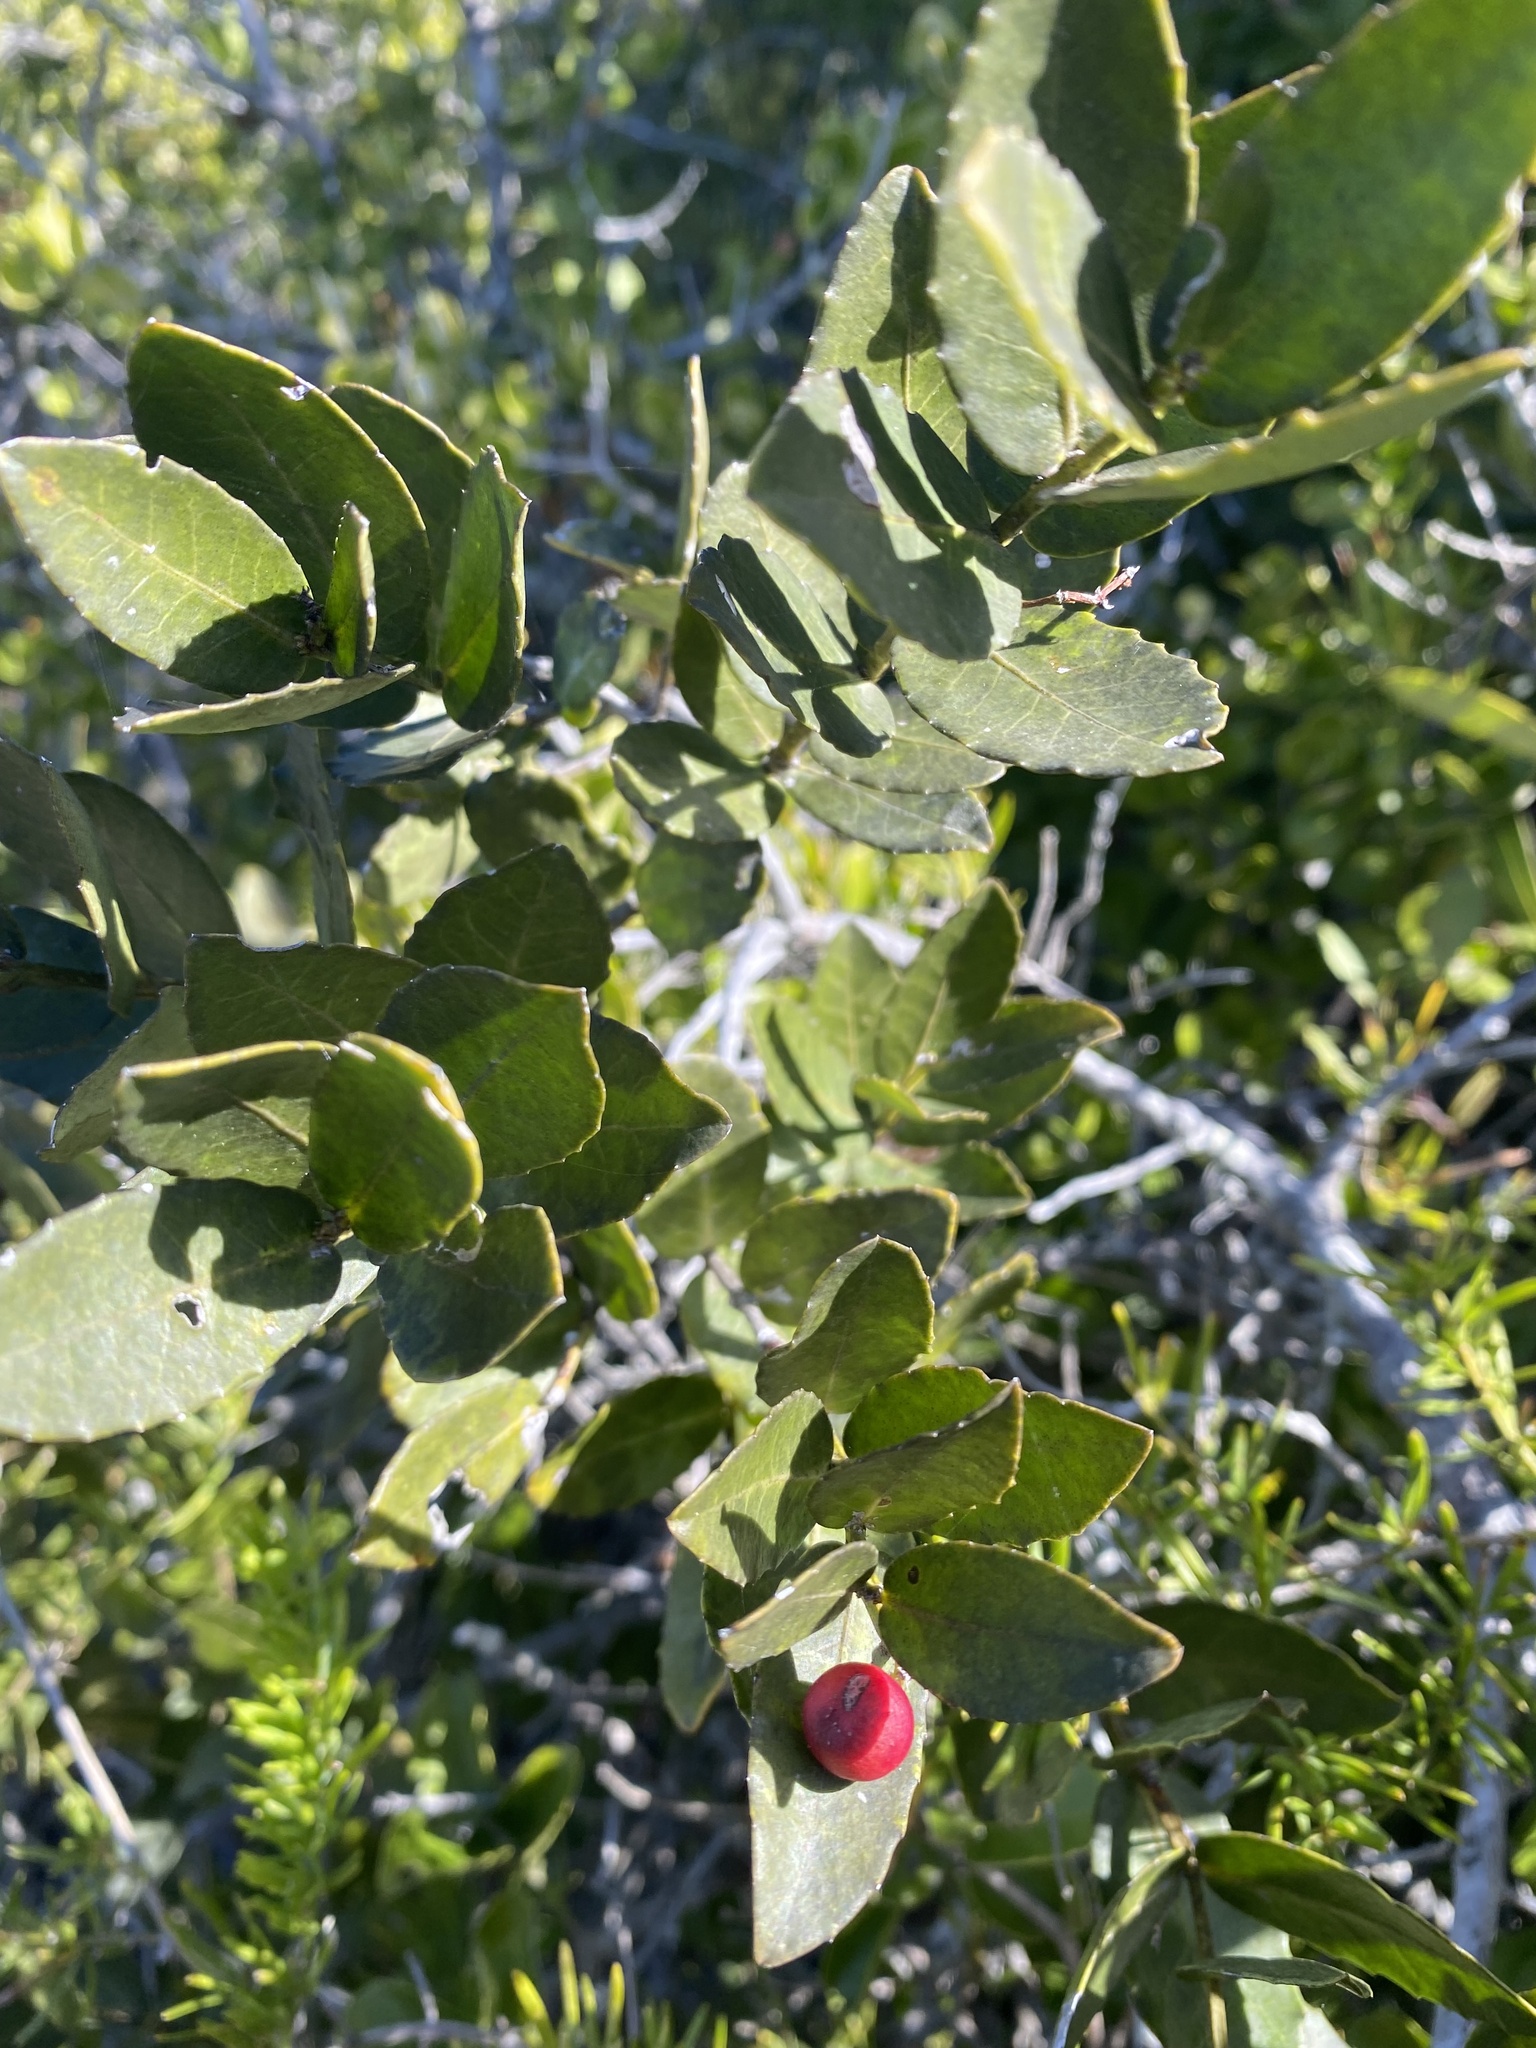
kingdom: Plantae
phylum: Tracheophyta
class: Magnoliopsida
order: Celastrales
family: Celastraceae
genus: Lauridia
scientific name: Lauridia tetragona
